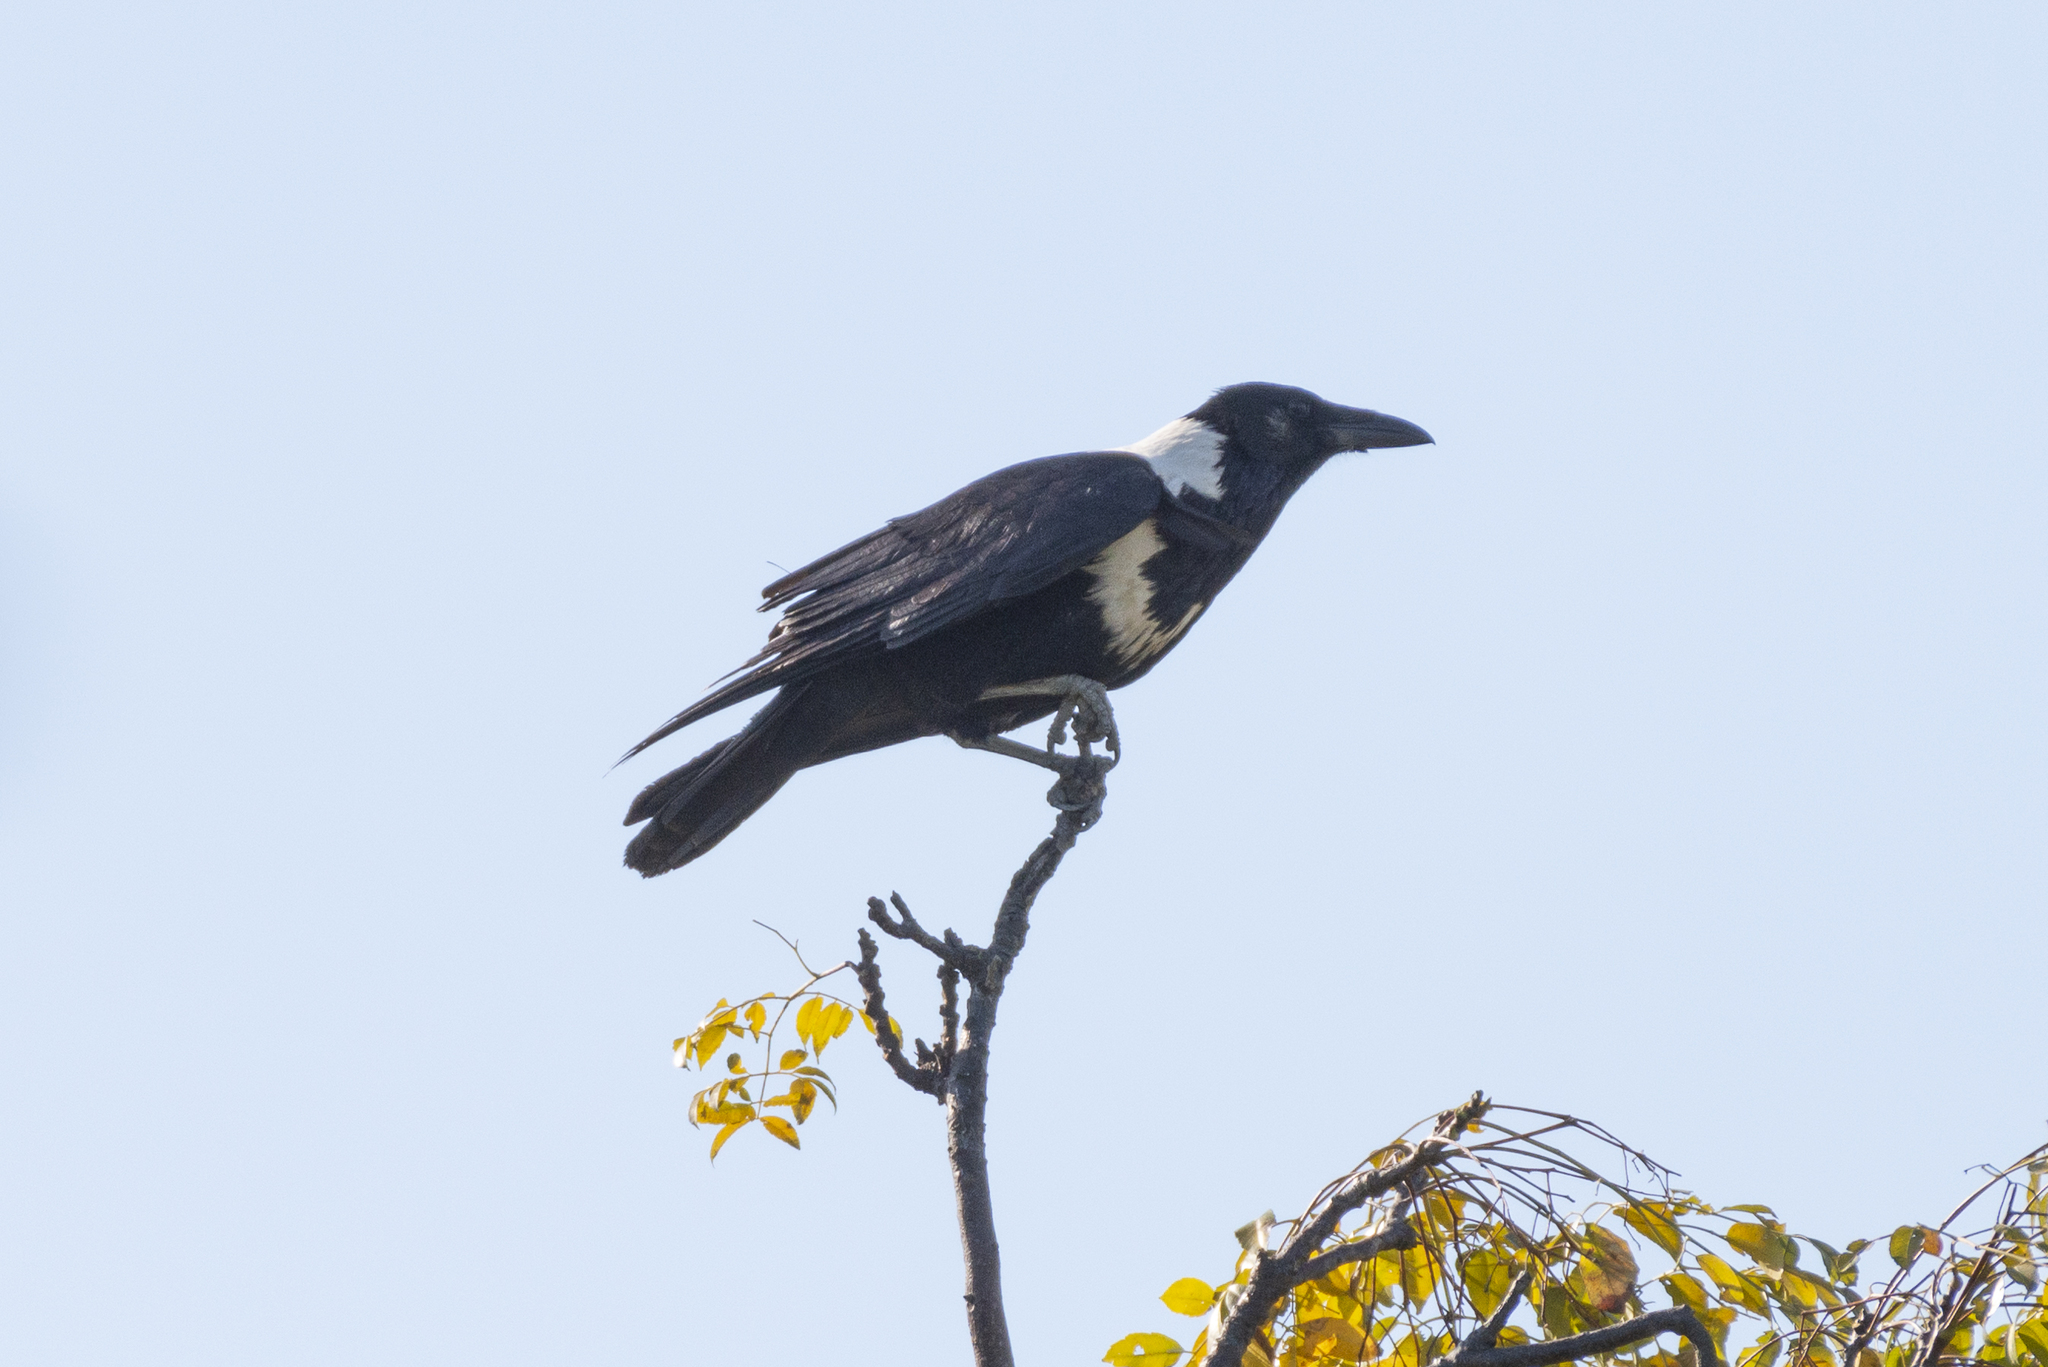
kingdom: Animalia
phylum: Chordata
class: Aves
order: Passeriformes
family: Corvidae
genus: Corvus
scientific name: Corvus pectoralis
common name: Collared crow
